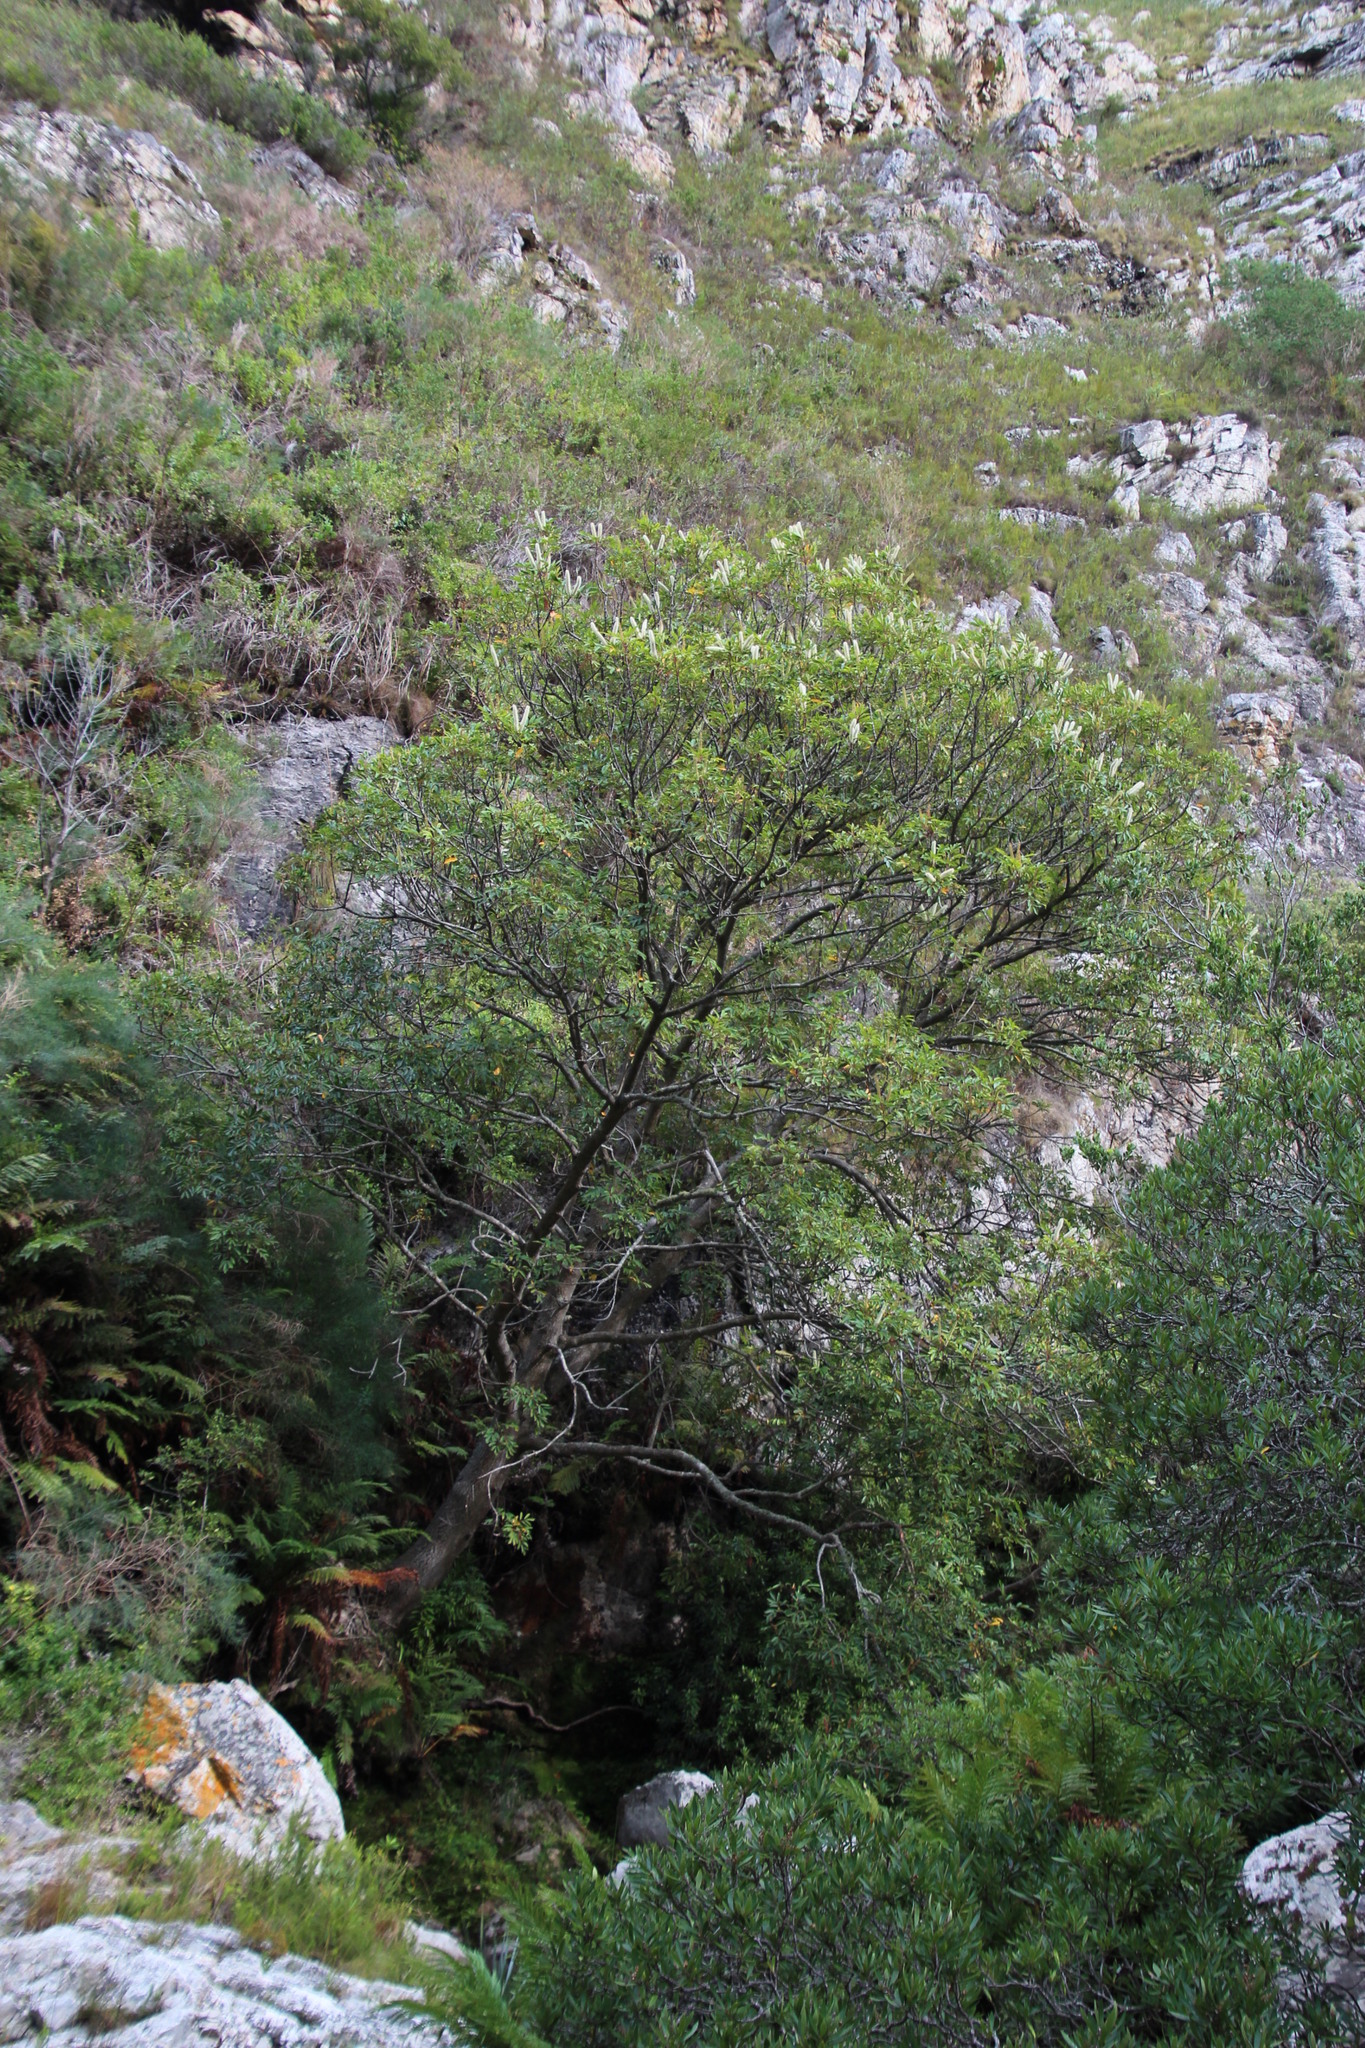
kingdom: Plantae
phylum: Tracheophyta
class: Magnoliopsida
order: Oxalidales
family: Cunoniaceae
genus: Cunonia
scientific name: Cunonia capensis
